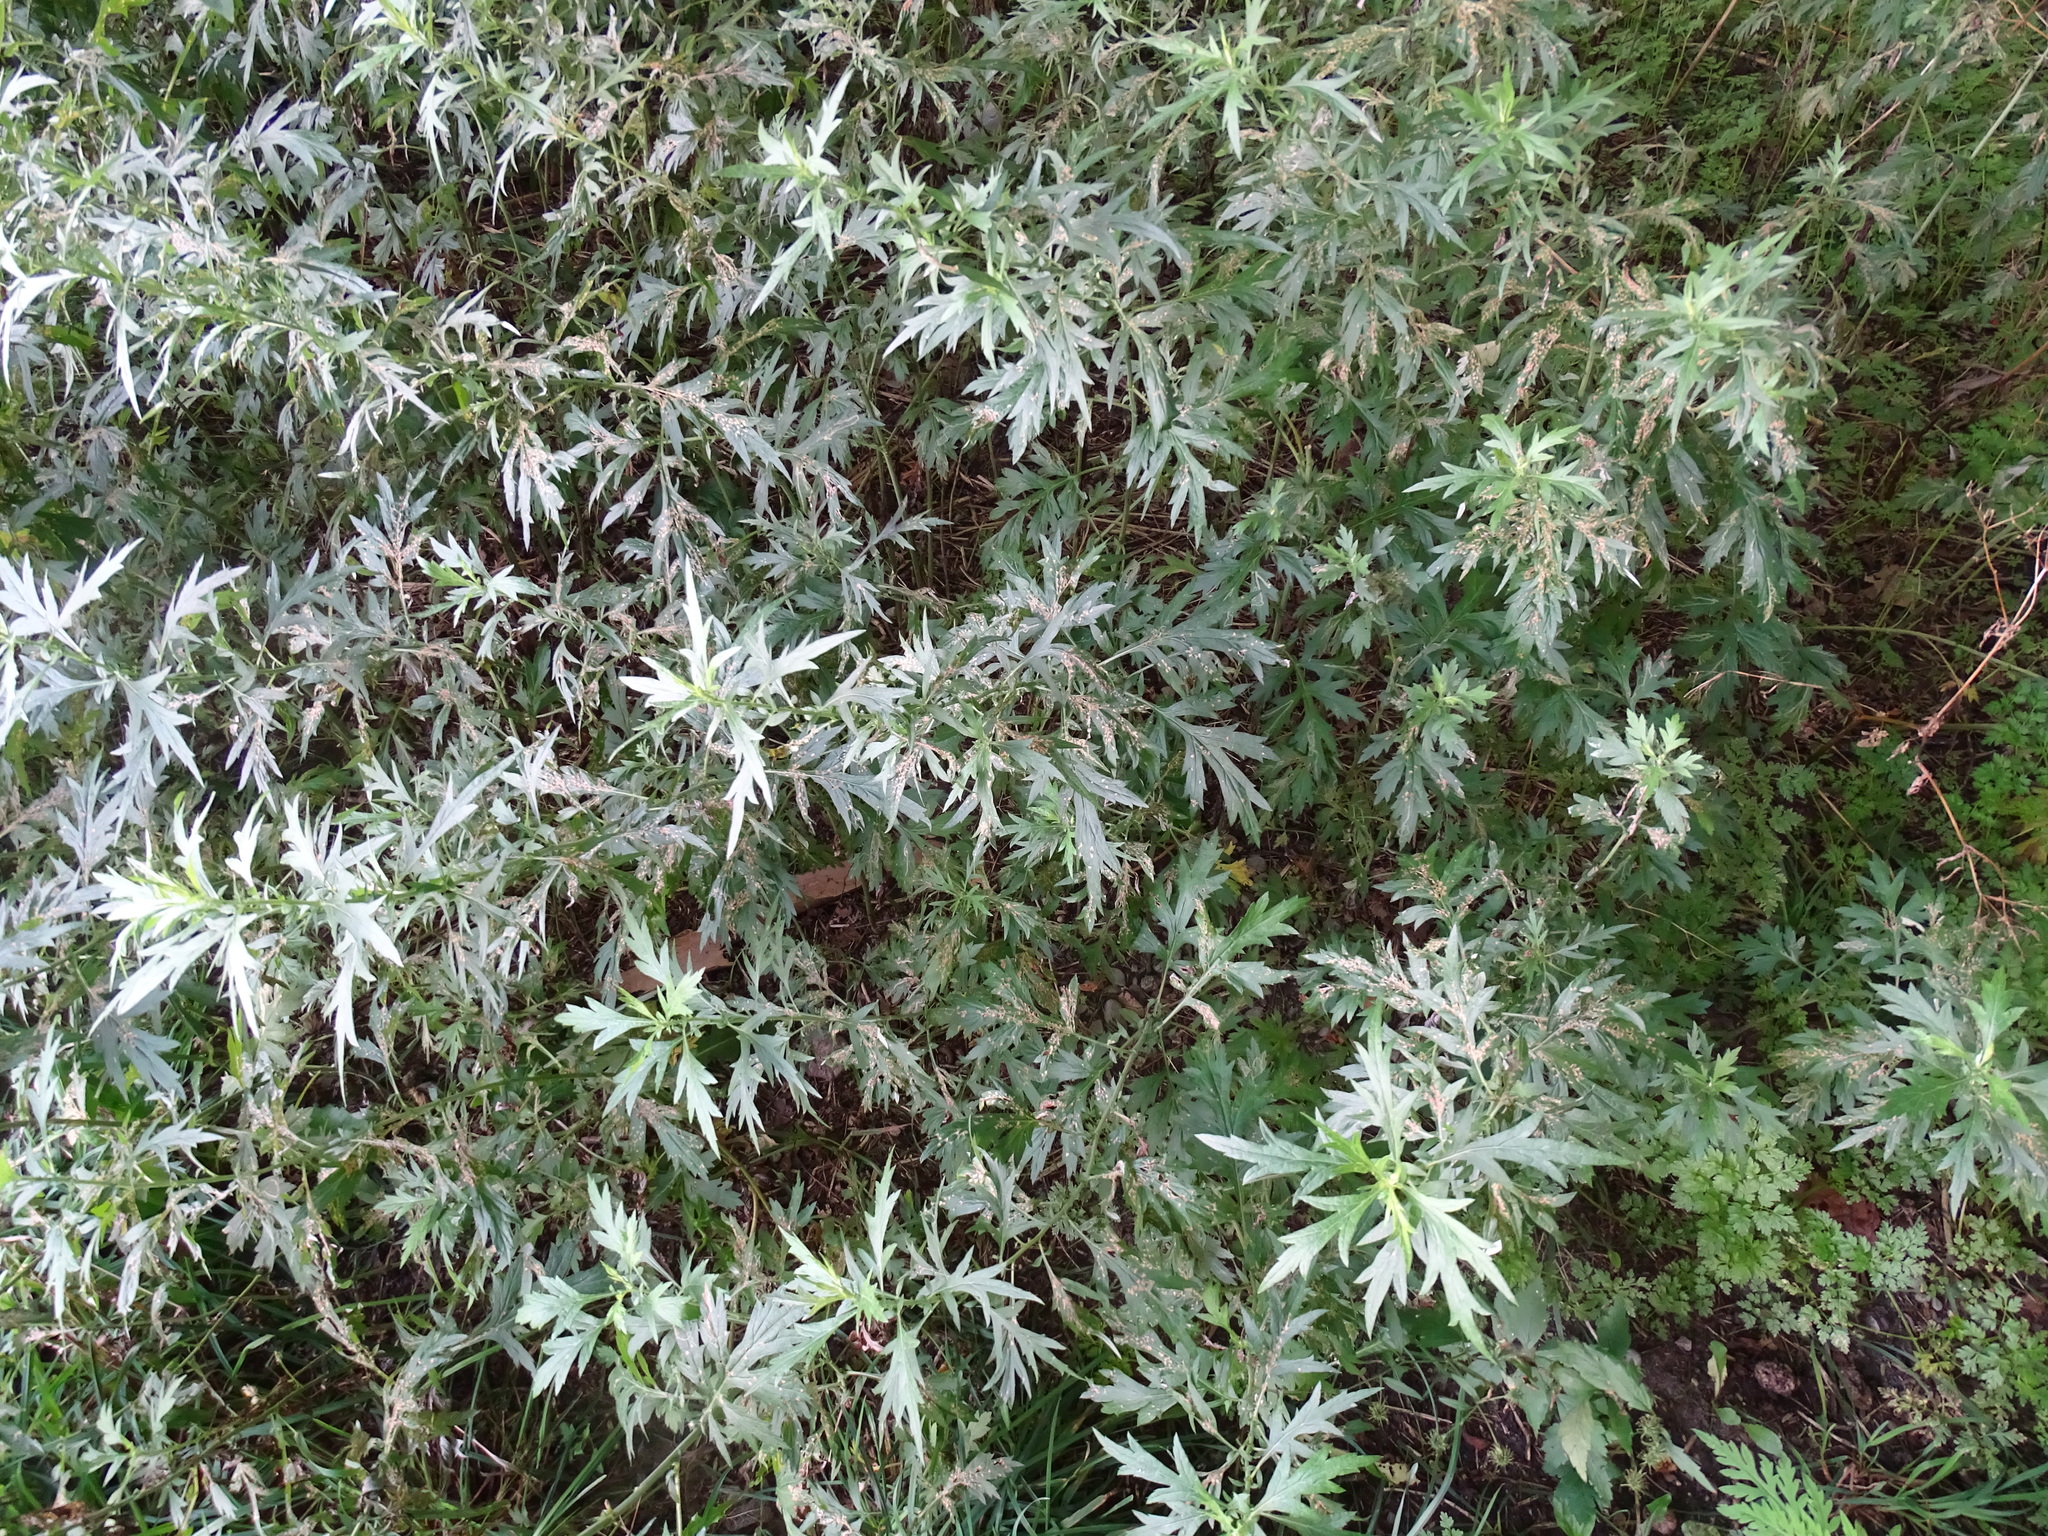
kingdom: Plantae
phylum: Tracheophyta
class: Magnoliopsida
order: Asterales
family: Asteraceae
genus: Artemisia
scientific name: Artemisia vulgaris
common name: Mugwort
